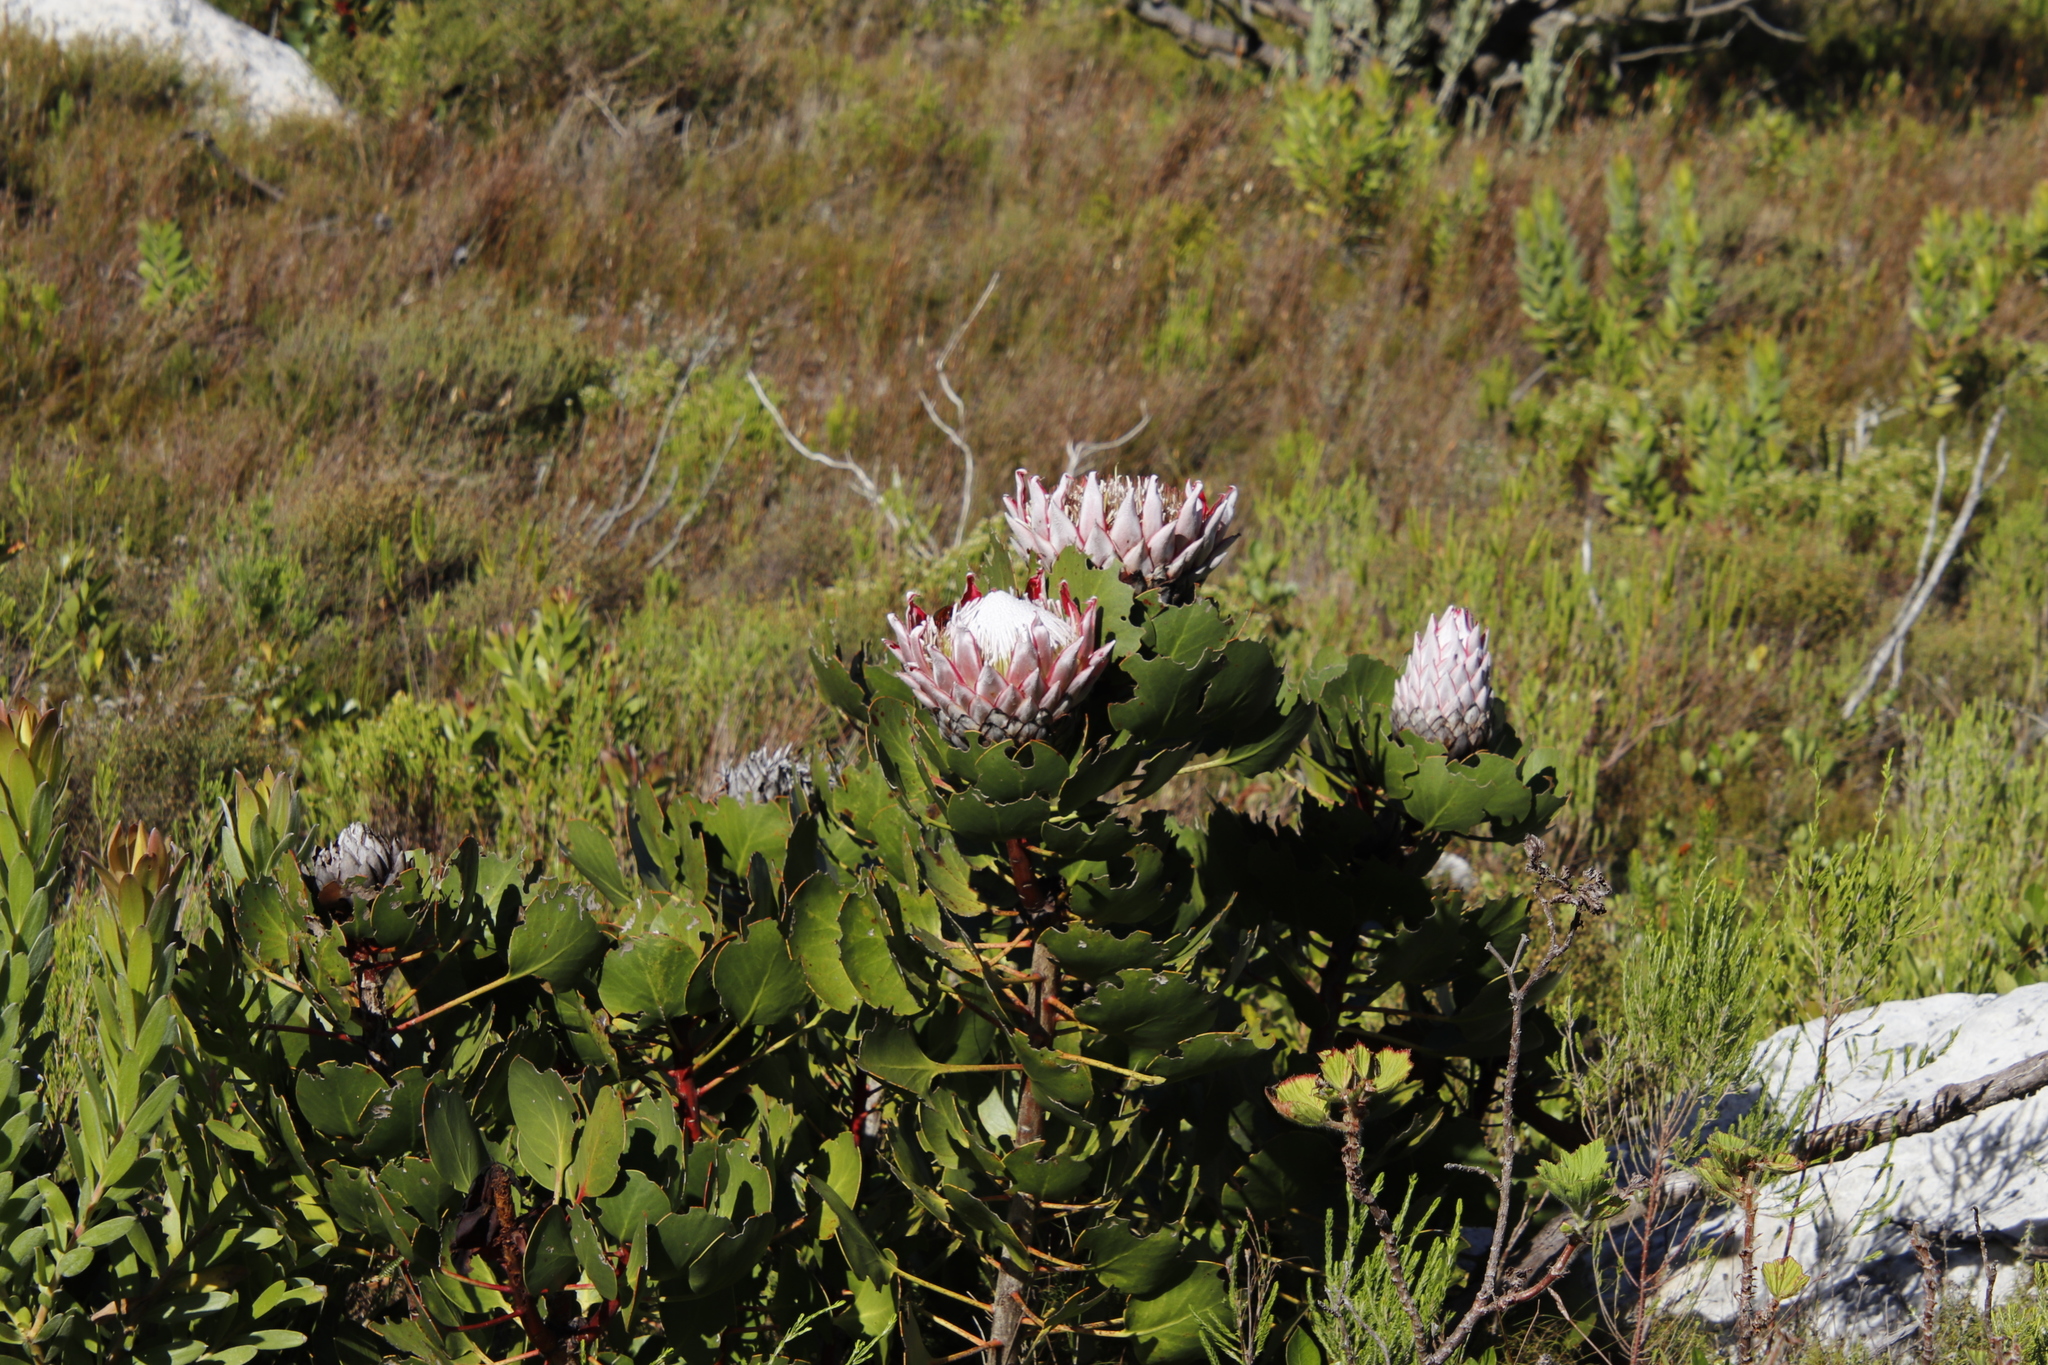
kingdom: Plantae
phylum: Tracheophyta
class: Magnoliopsida
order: Proteales
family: Proteaceae
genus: Protea
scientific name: Protea cynaroides
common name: King protea
